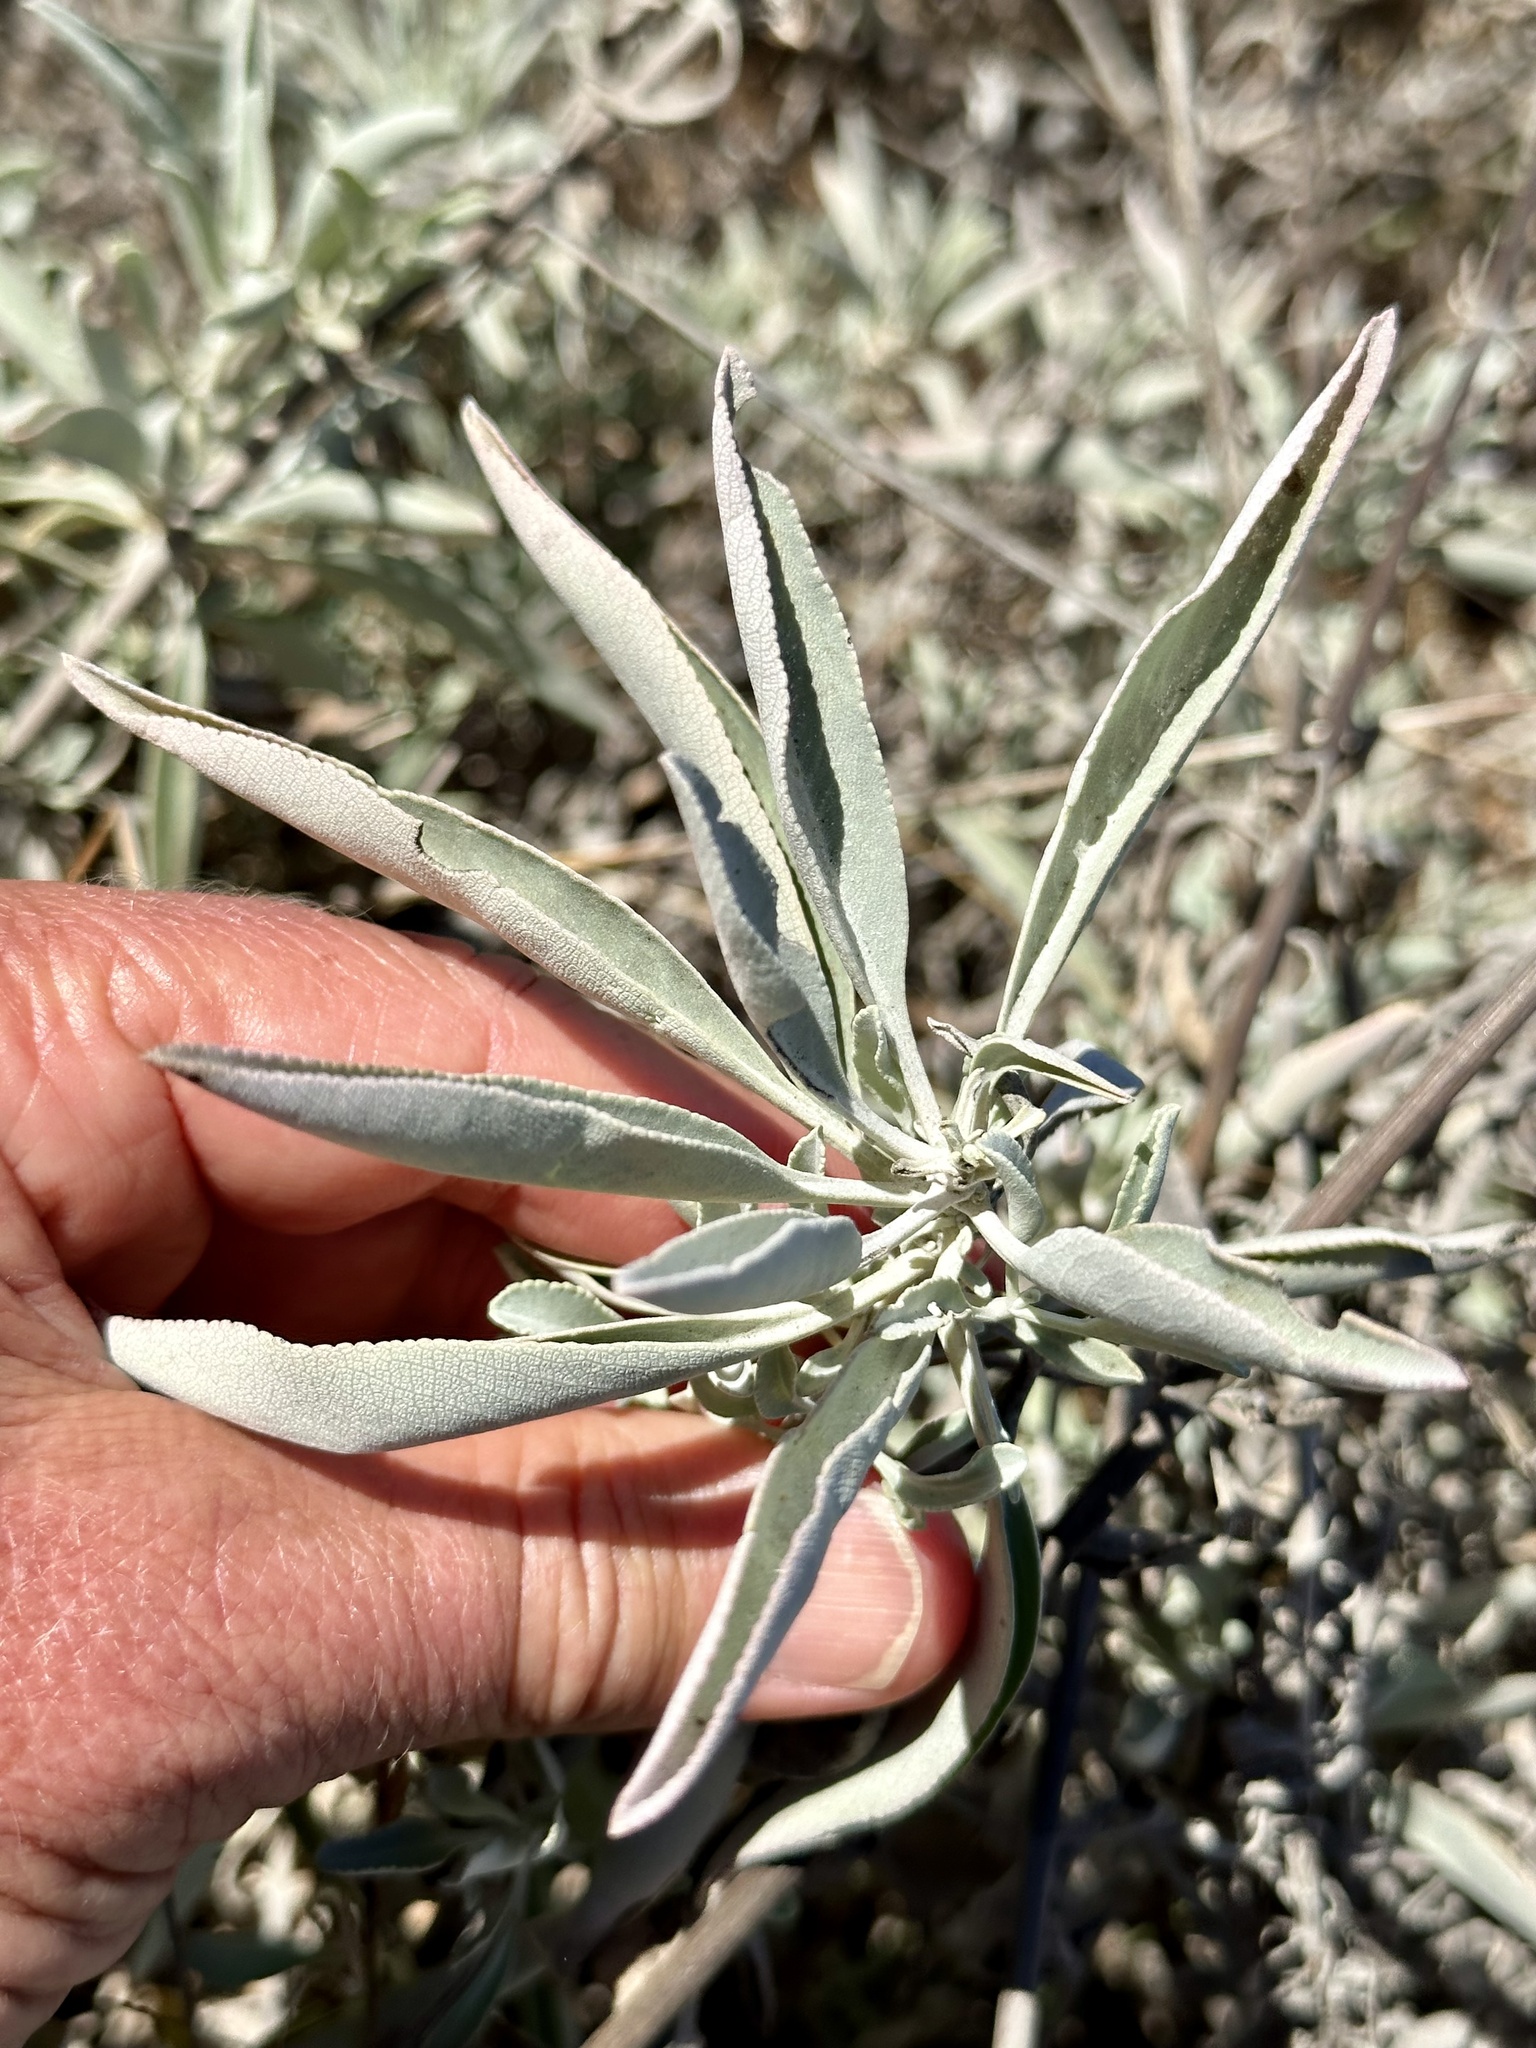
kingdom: Plantae
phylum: Tracheophyta
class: Magnoliopsida
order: Lamiales
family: Lamiaceae
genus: Salvia
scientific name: Salvia apiana
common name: White sage
